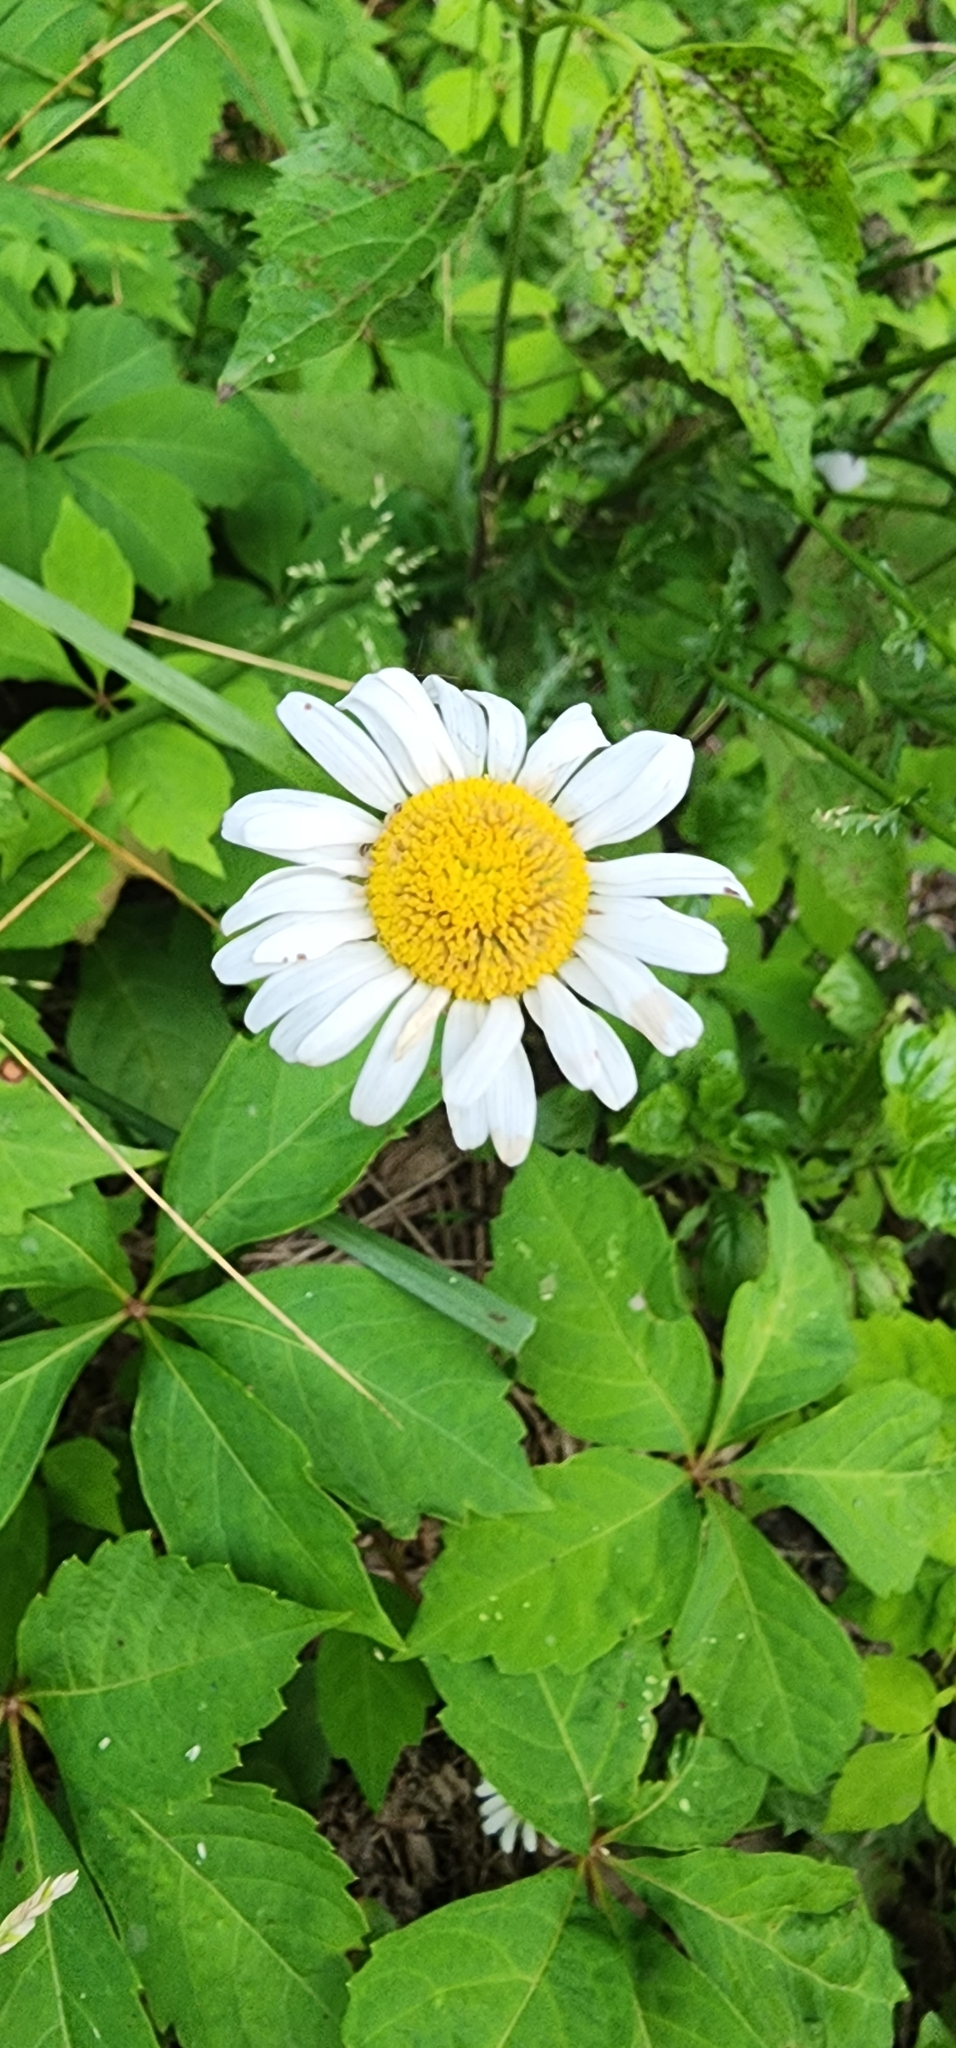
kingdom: Plantae
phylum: Tracheophyta
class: Magnoliopsida
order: Asterales
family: Asteraceae
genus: Leucanthemum
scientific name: Leucanthemum vulgare
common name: Oxeye daisy
